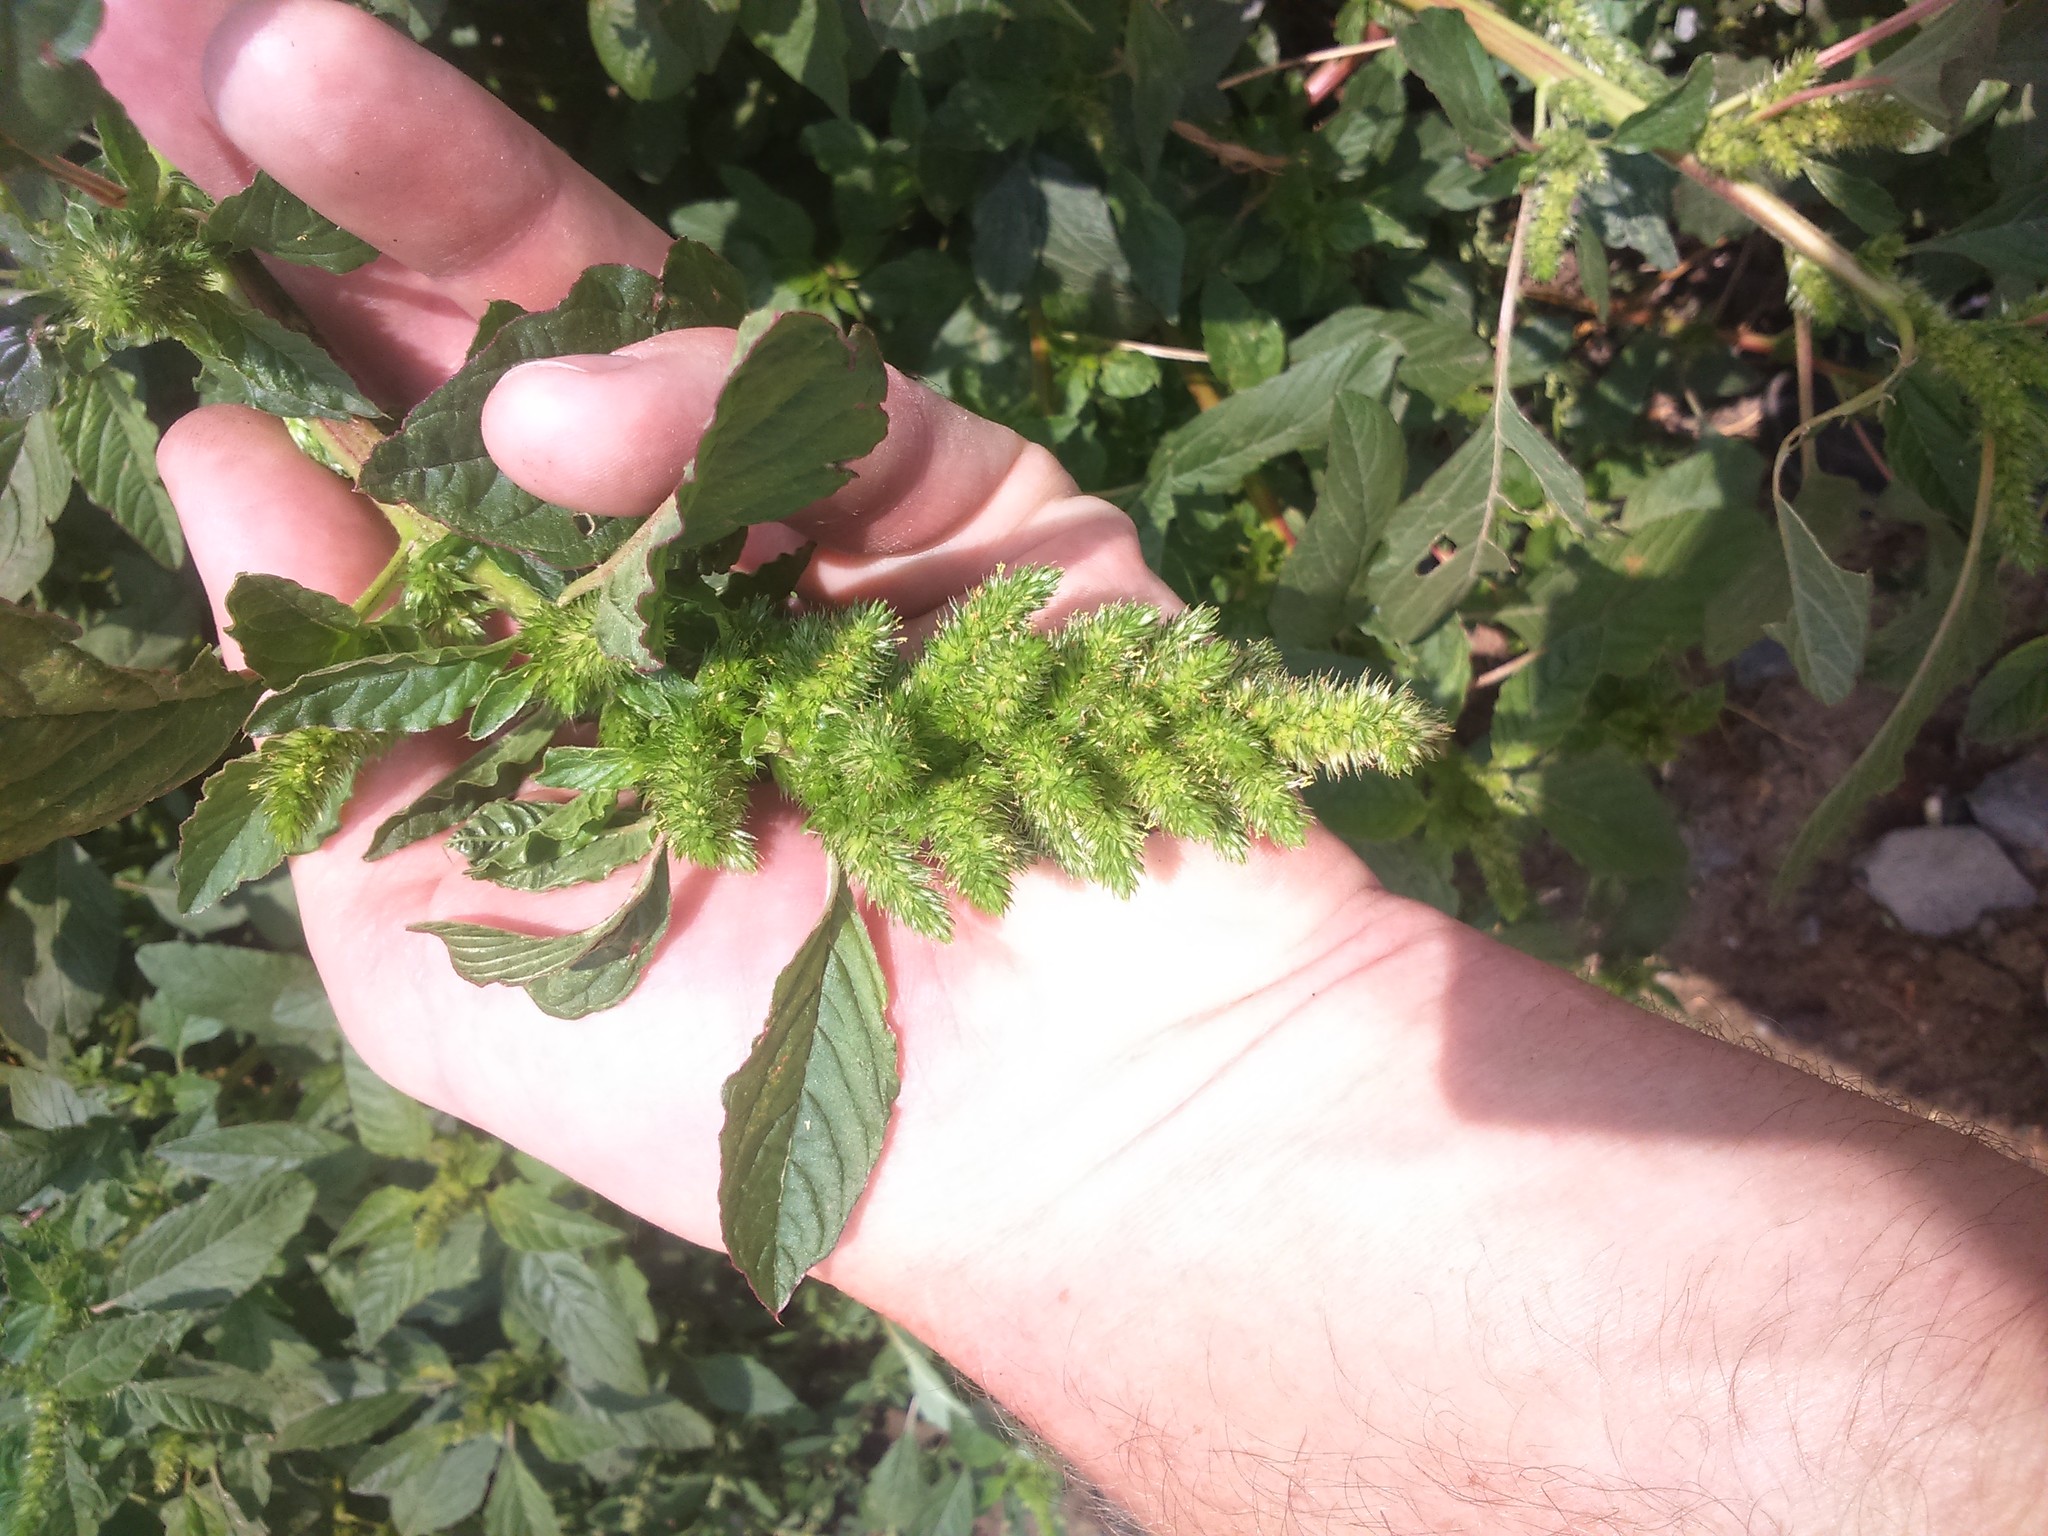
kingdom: Plantae
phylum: Tracheophyta
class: Magnoliopsida
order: Caryophyllales
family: Amaranthaceae
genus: Amaranthus
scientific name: Amaranthus hybridus
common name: Green amaranth
